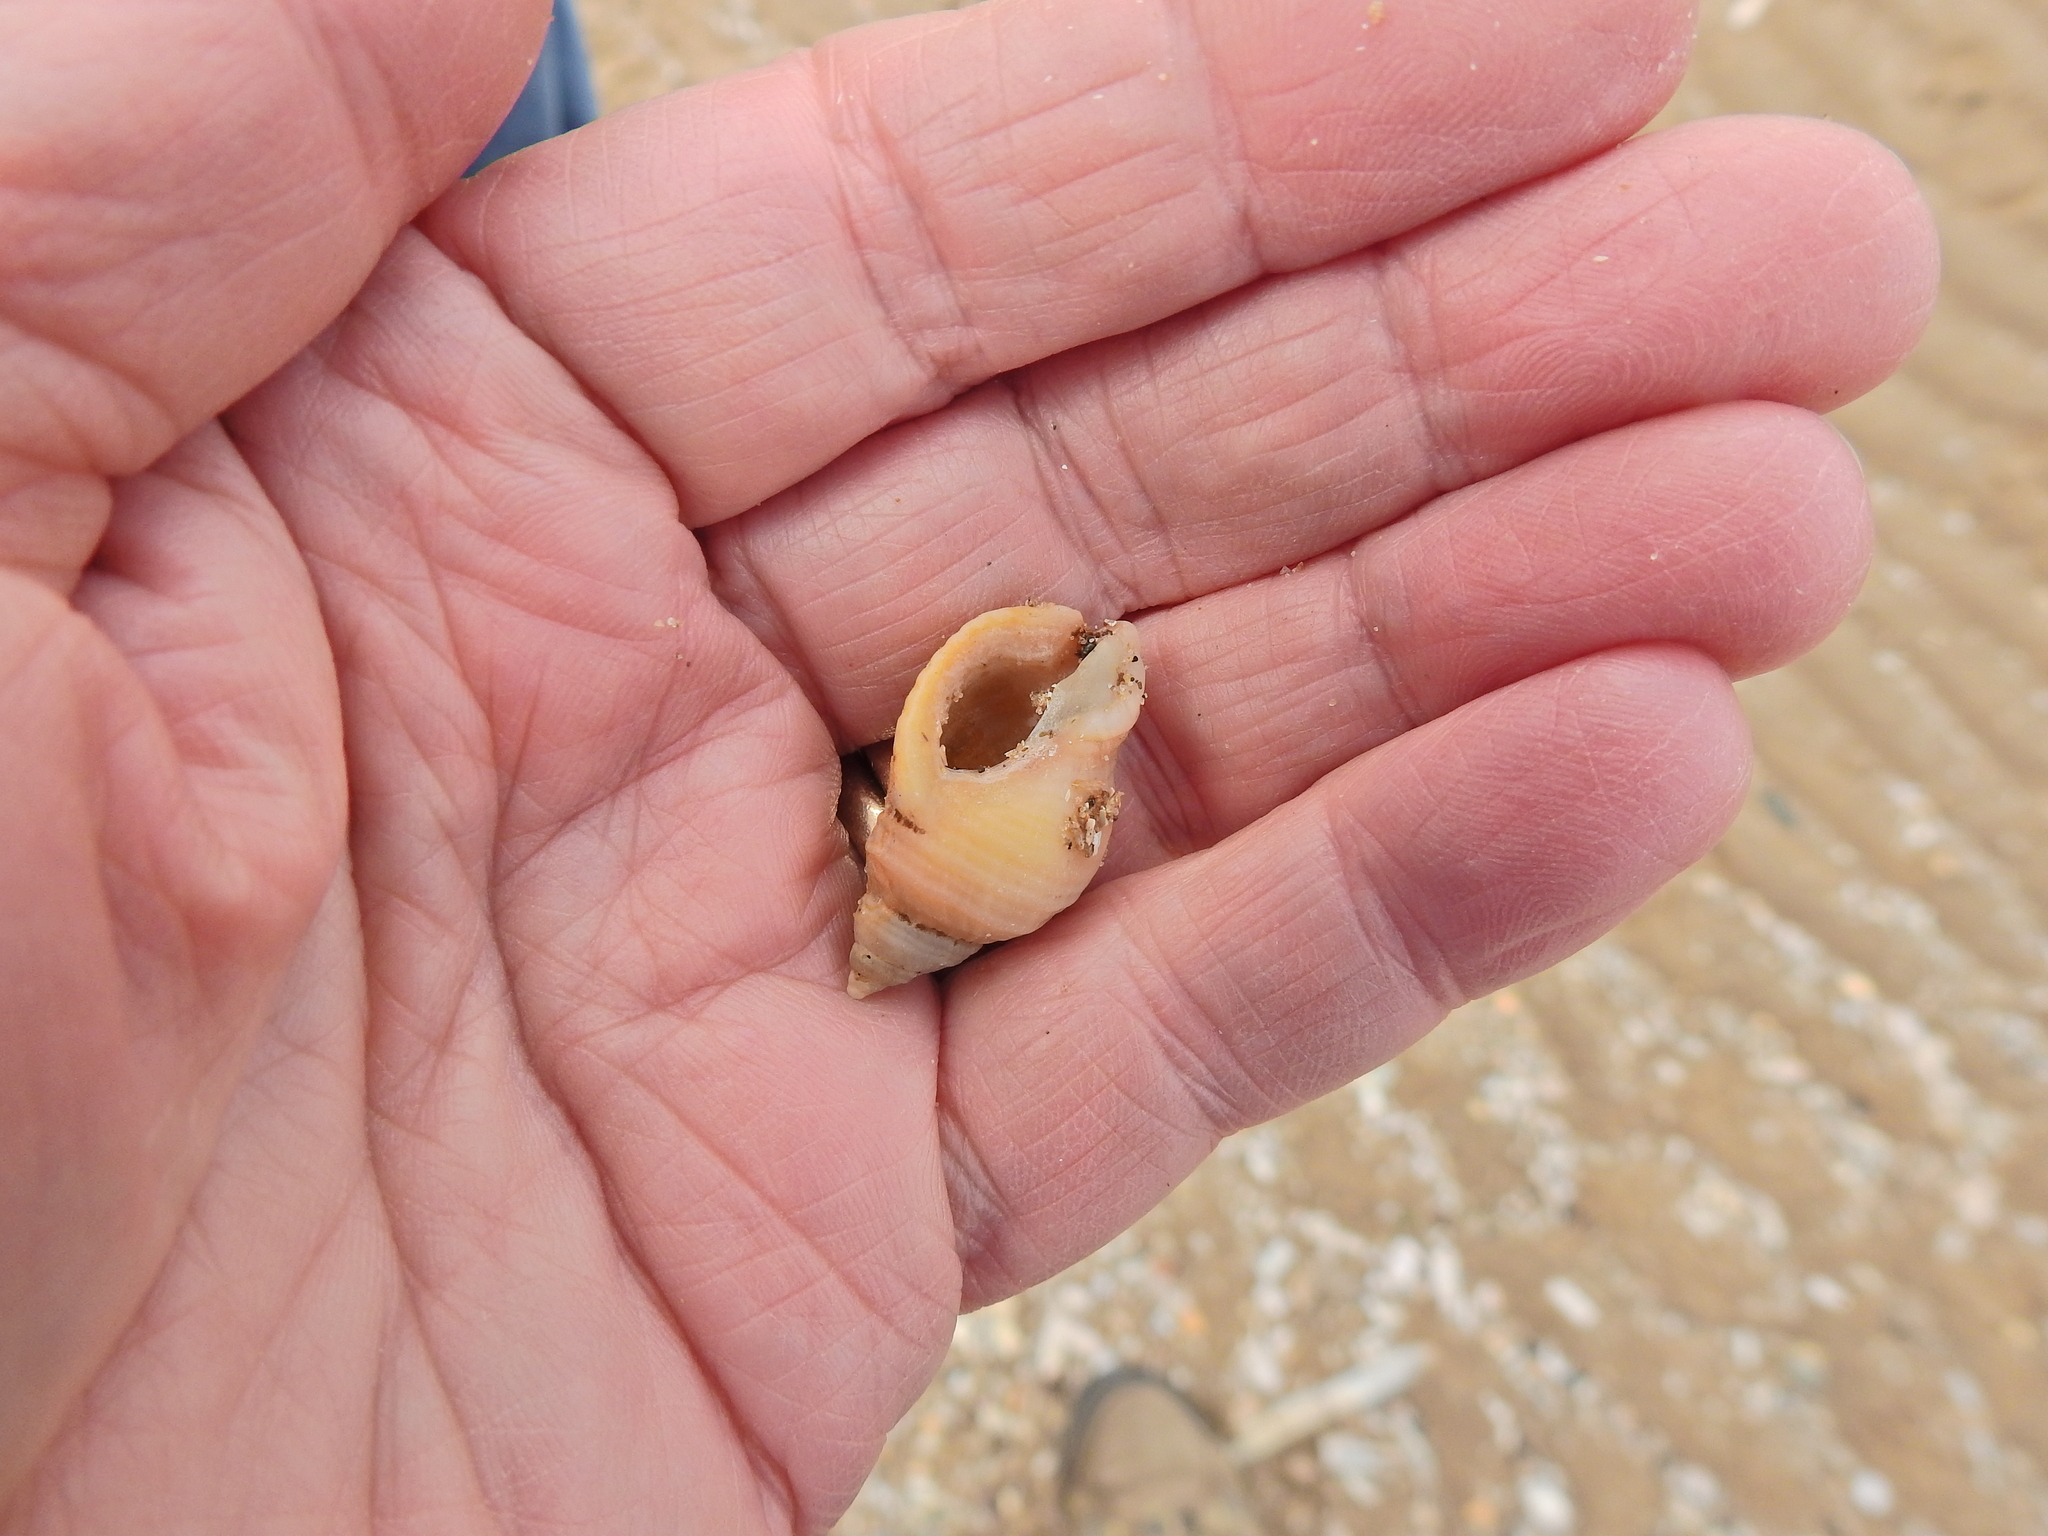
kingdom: Animalia
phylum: Mollusca
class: Gastropoda
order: Neogastropoda
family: Muricidae
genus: Nucella
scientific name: Nucella lapillus
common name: Dog whelk
